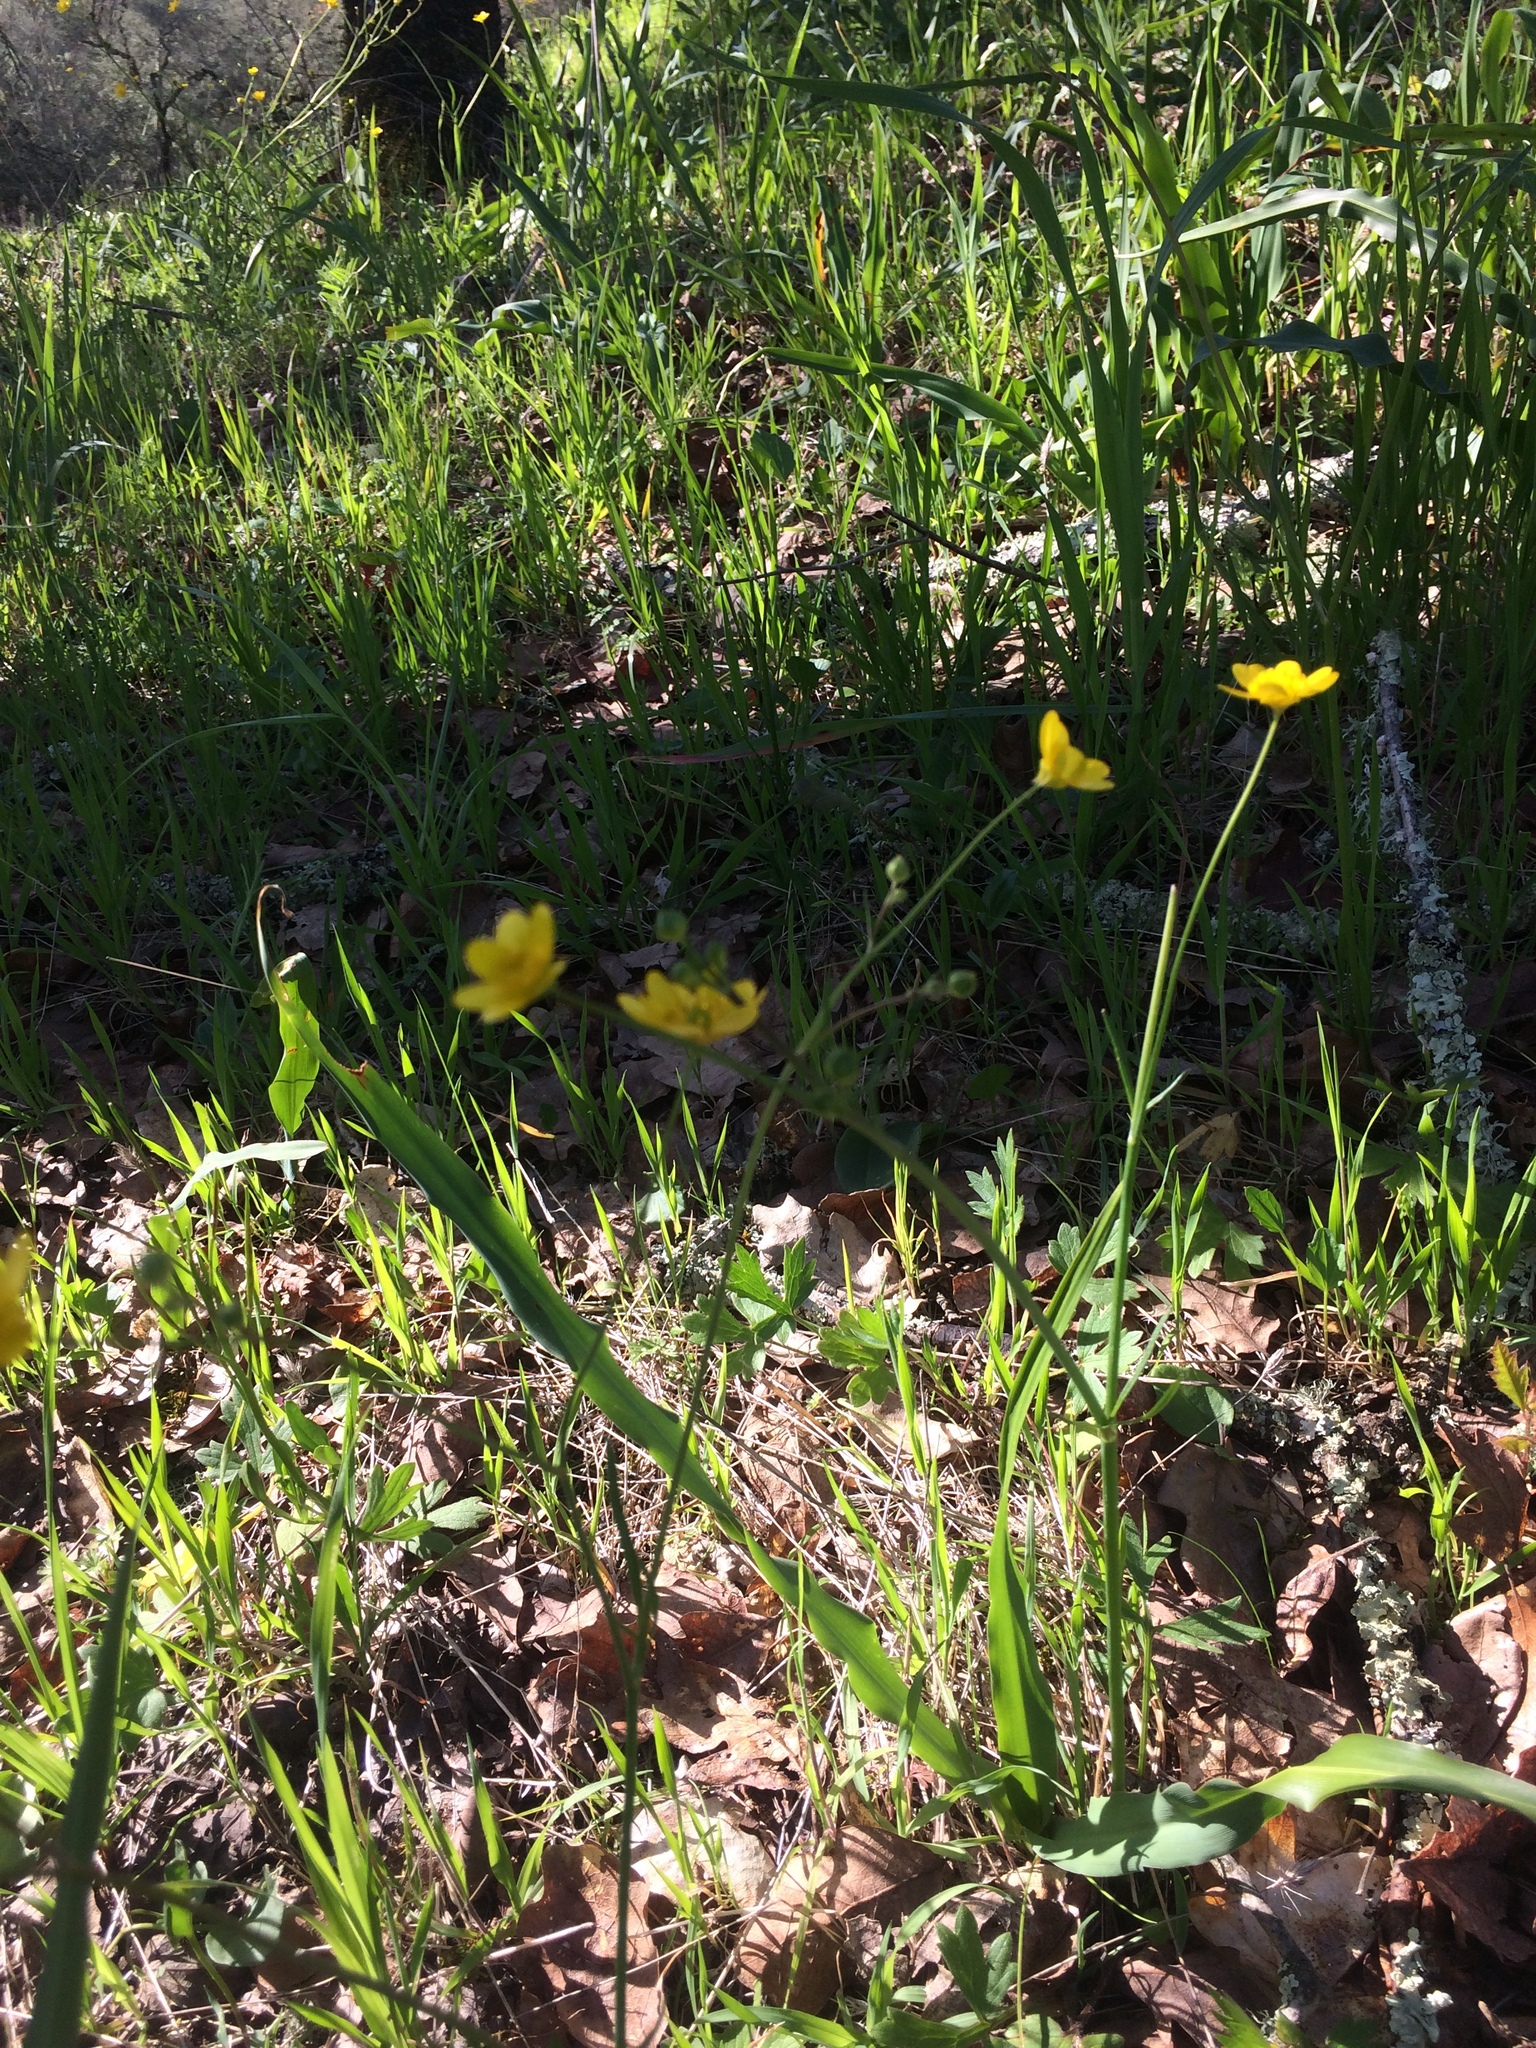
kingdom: Plantae
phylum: Tracheophyta
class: Magnoliopsida
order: Ranunculales
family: Ranunculaceae
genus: Ranunculus
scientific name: Ranunculus californicus
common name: California buttercup
